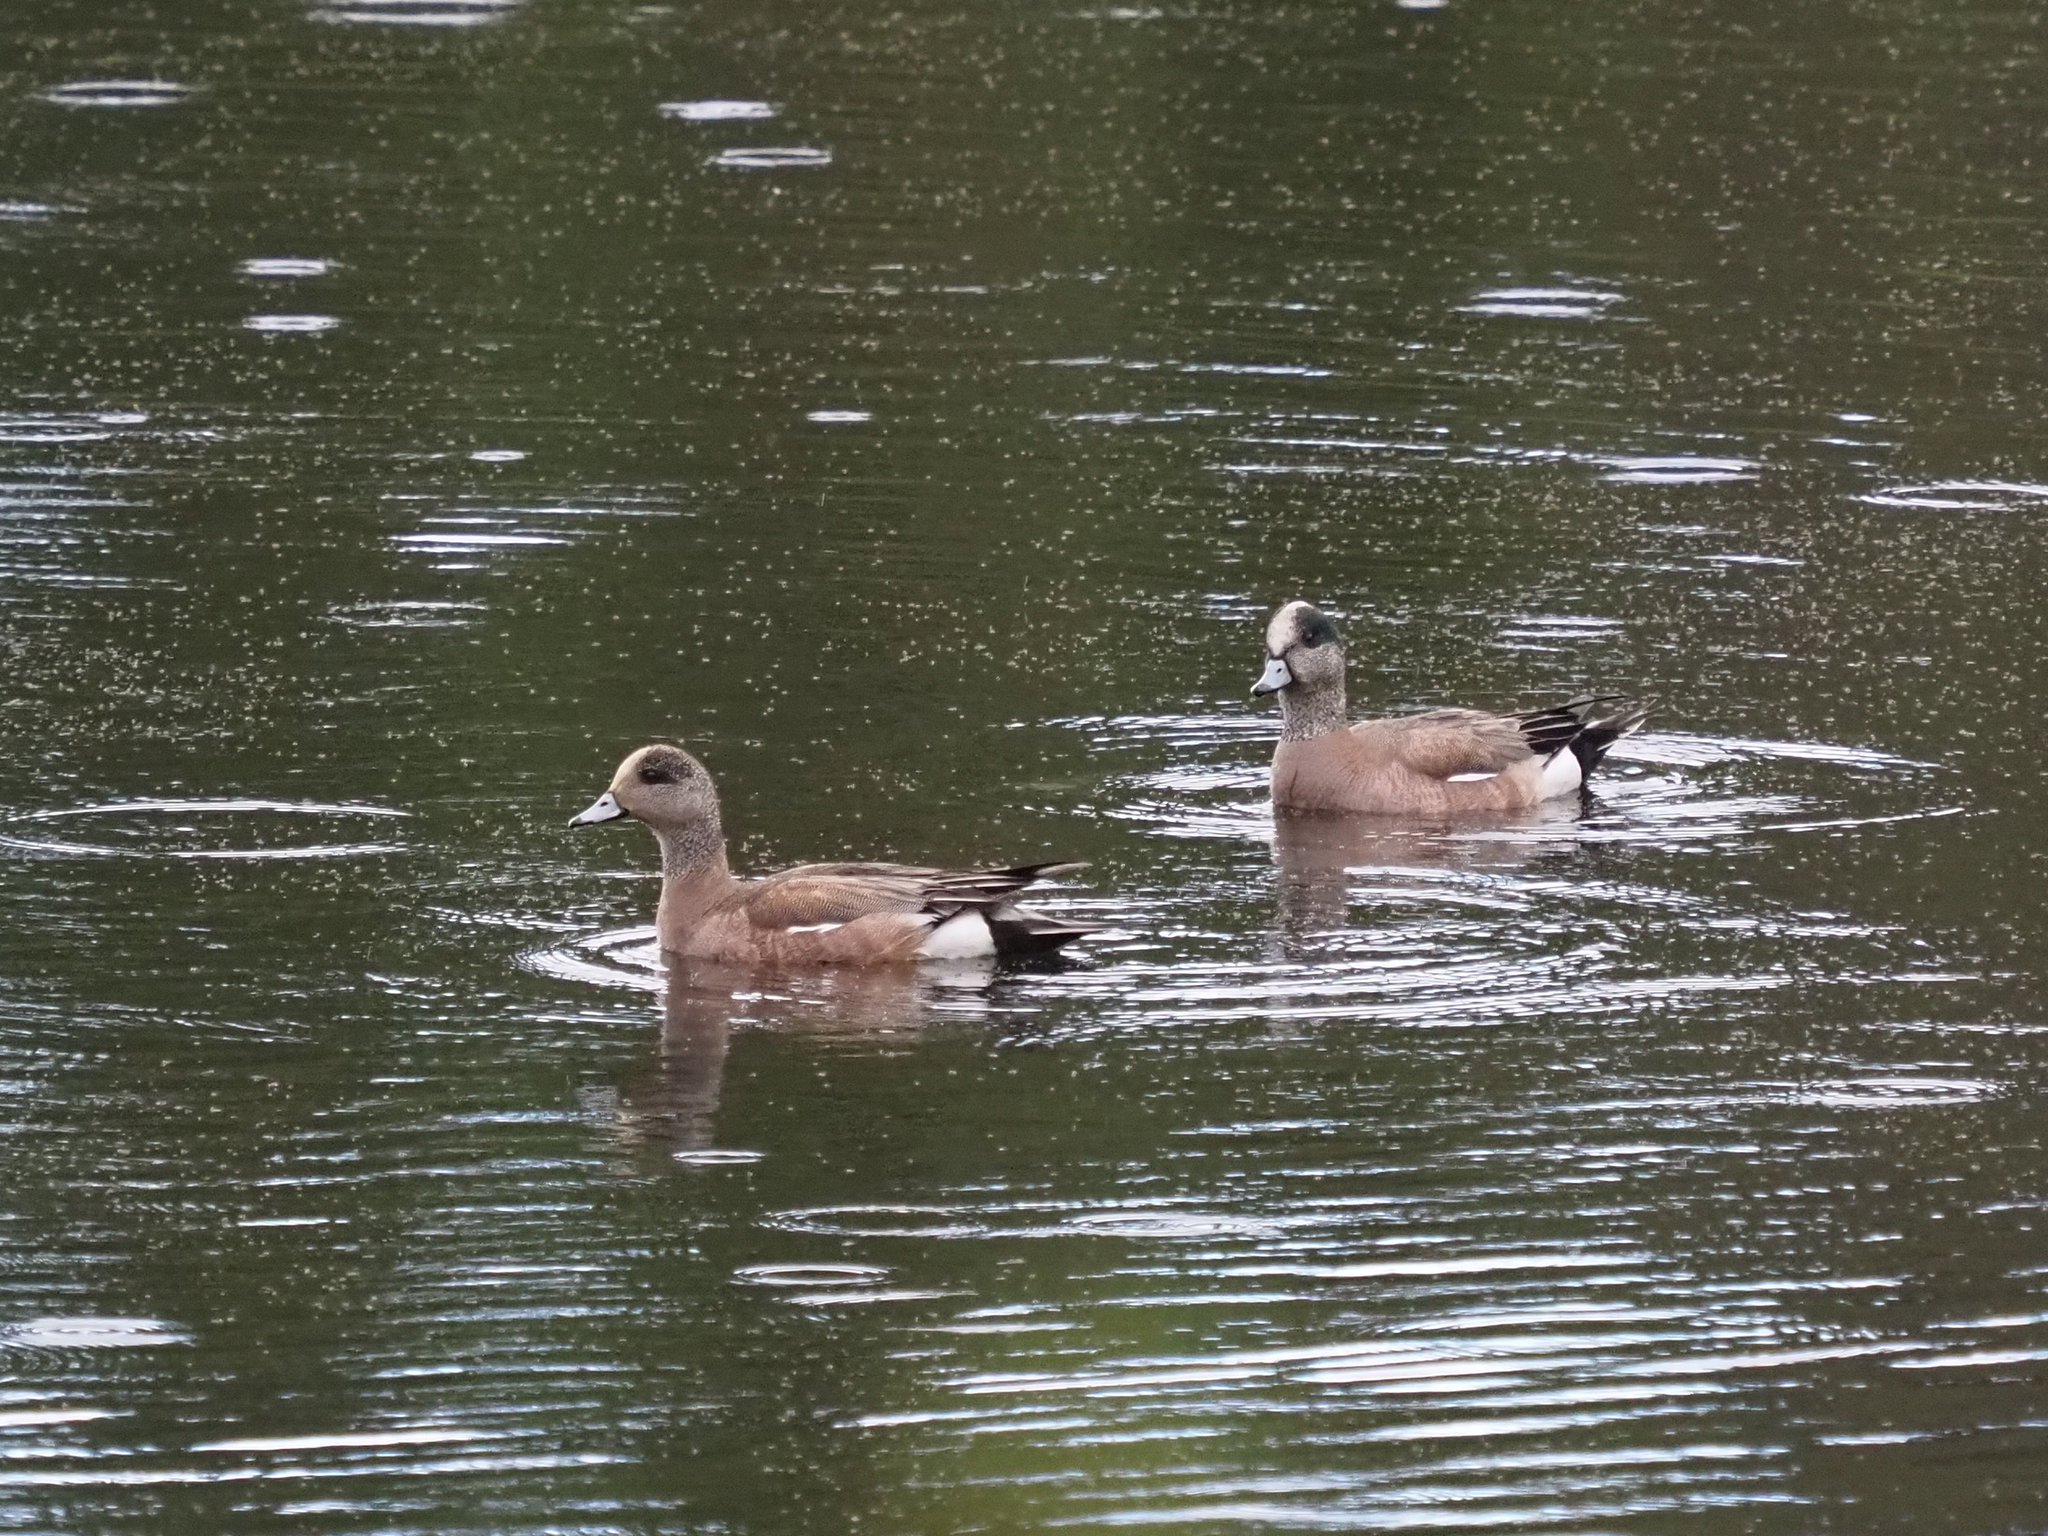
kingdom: Animalia
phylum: Chordata
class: Aves
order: Anseriformes
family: Anatidae
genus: Mareca
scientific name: Mareca americana
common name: American wigeon
